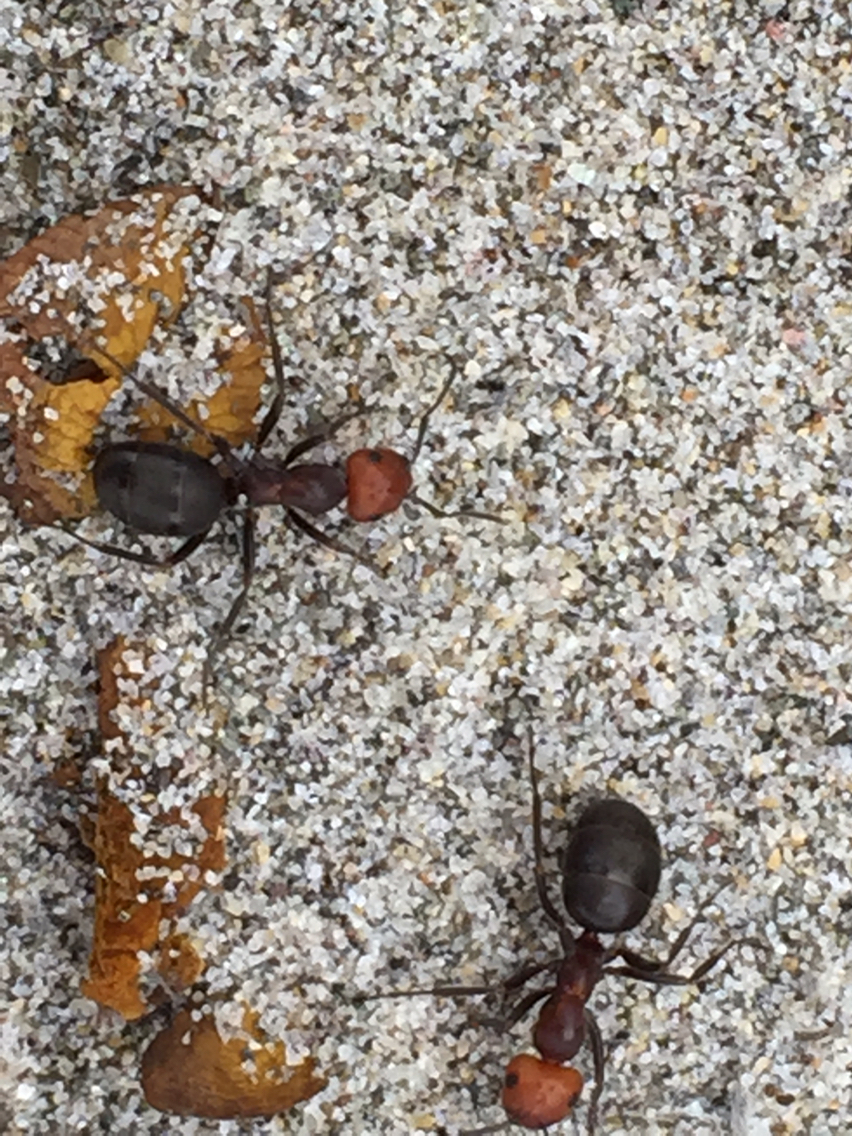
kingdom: Animalia
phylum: Arthropoda
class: Insecta
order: Hymenoptera
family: Formicidae
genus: Formica
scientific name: Formica obscuripes
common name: Western thatching ant
